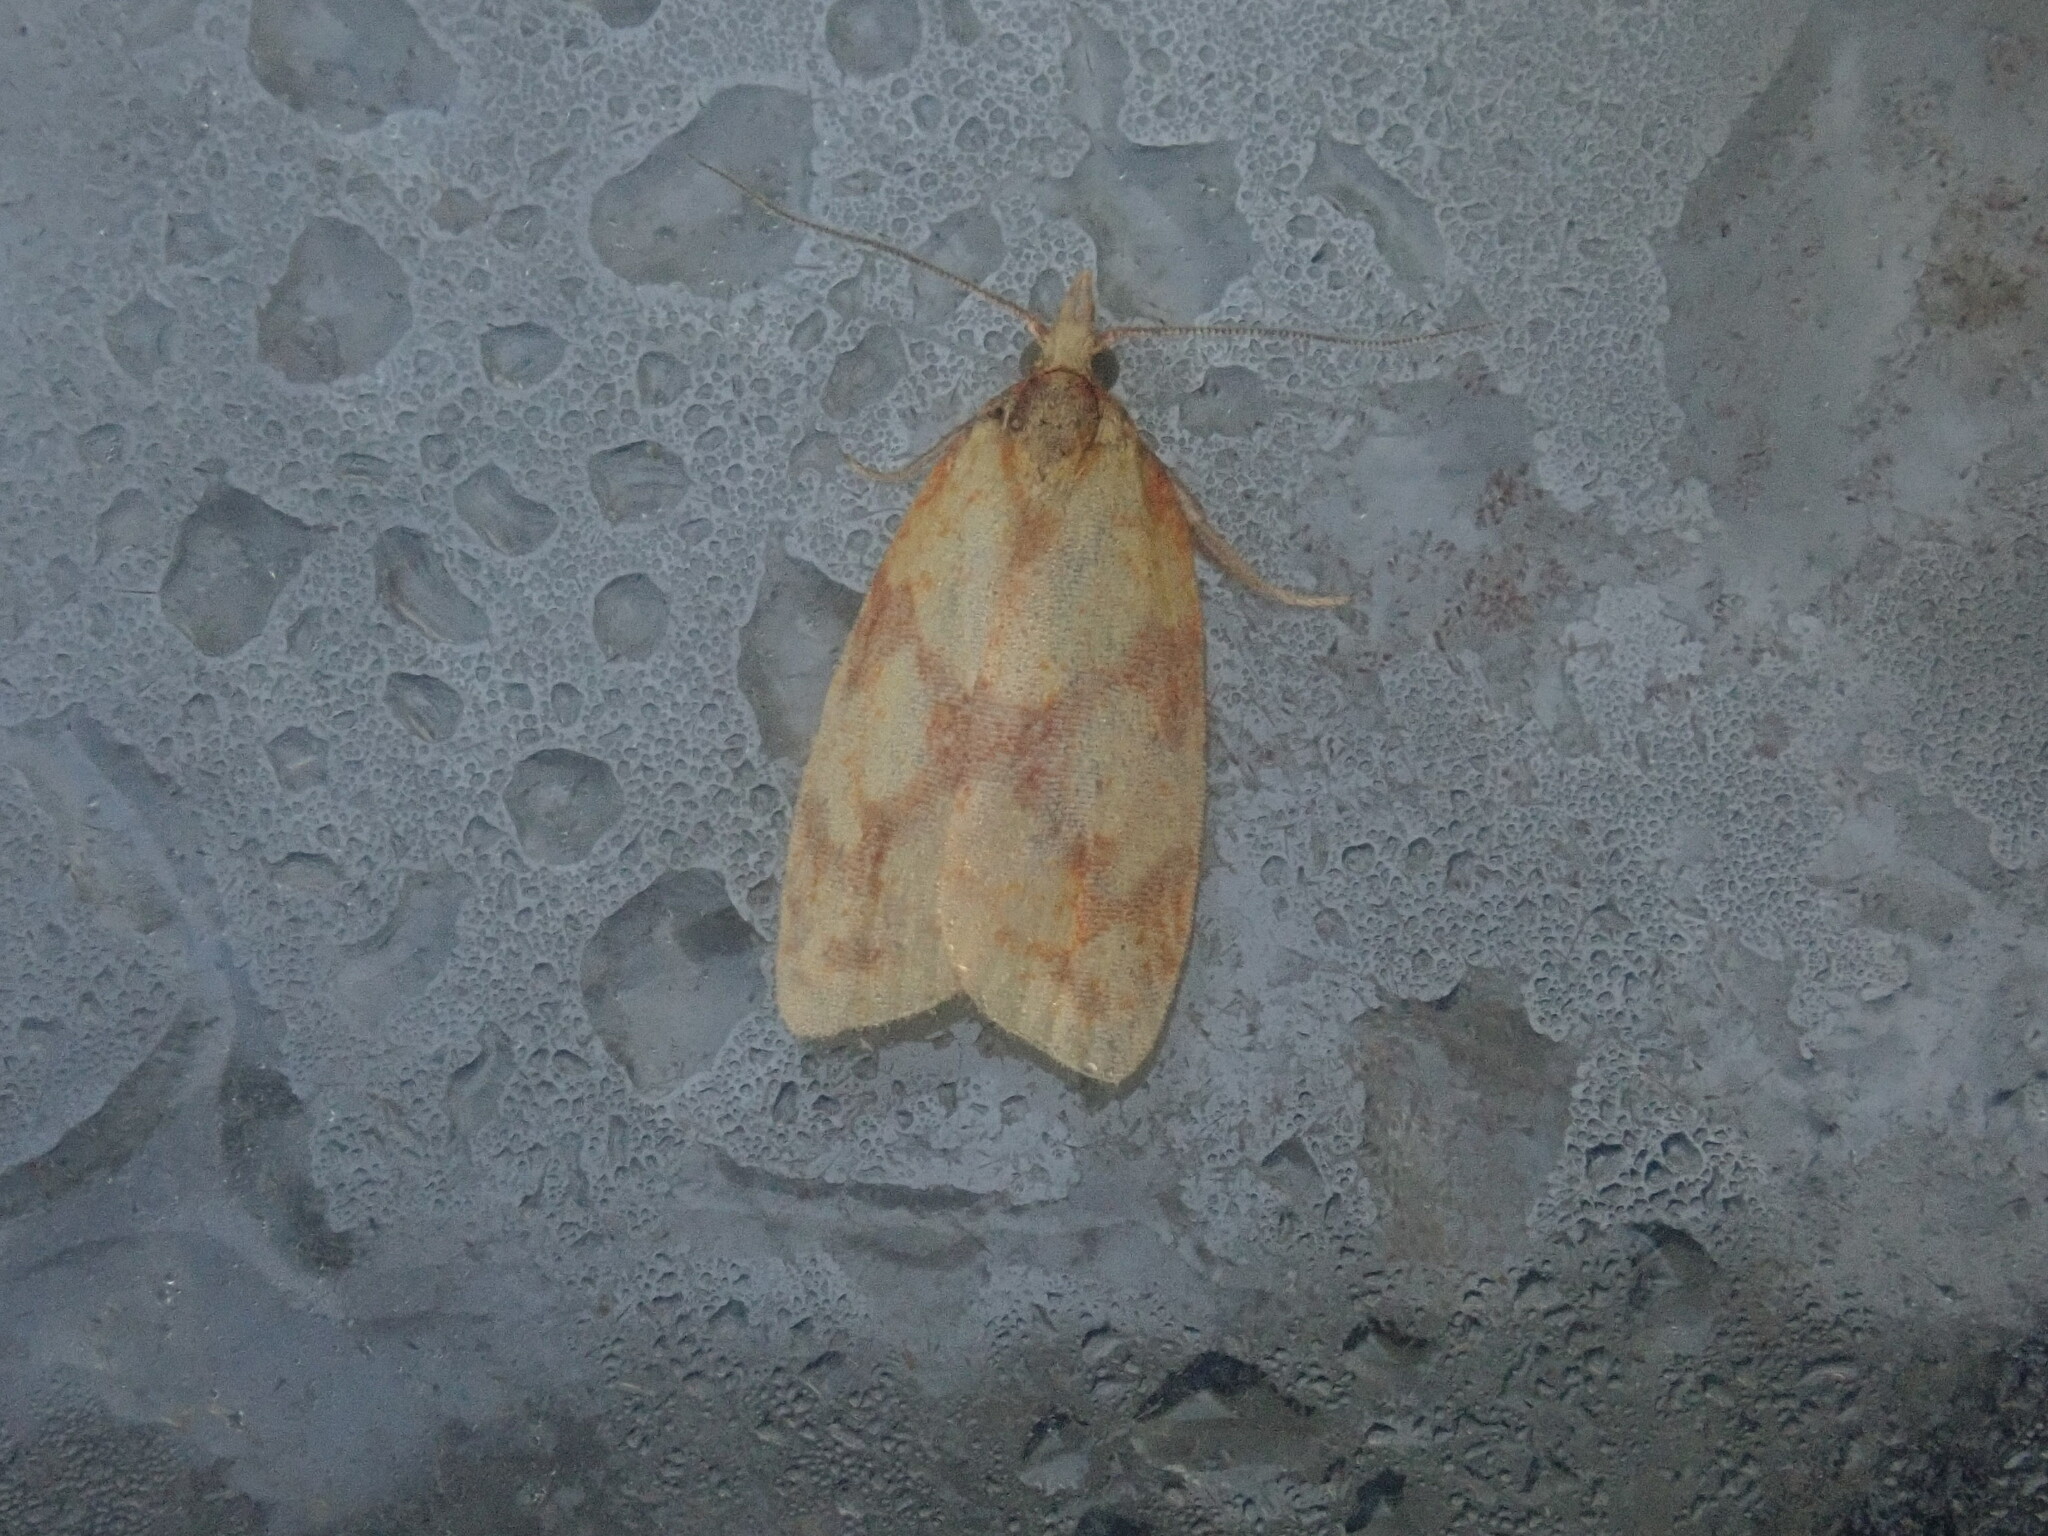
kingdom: Animalia
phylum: Arthropoda
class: Insecta
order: Lepidoptera
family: Tortricidae
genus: Sparganothis
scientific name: Sparganothis sulfureana
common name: Sparganothis fruitworm moth
